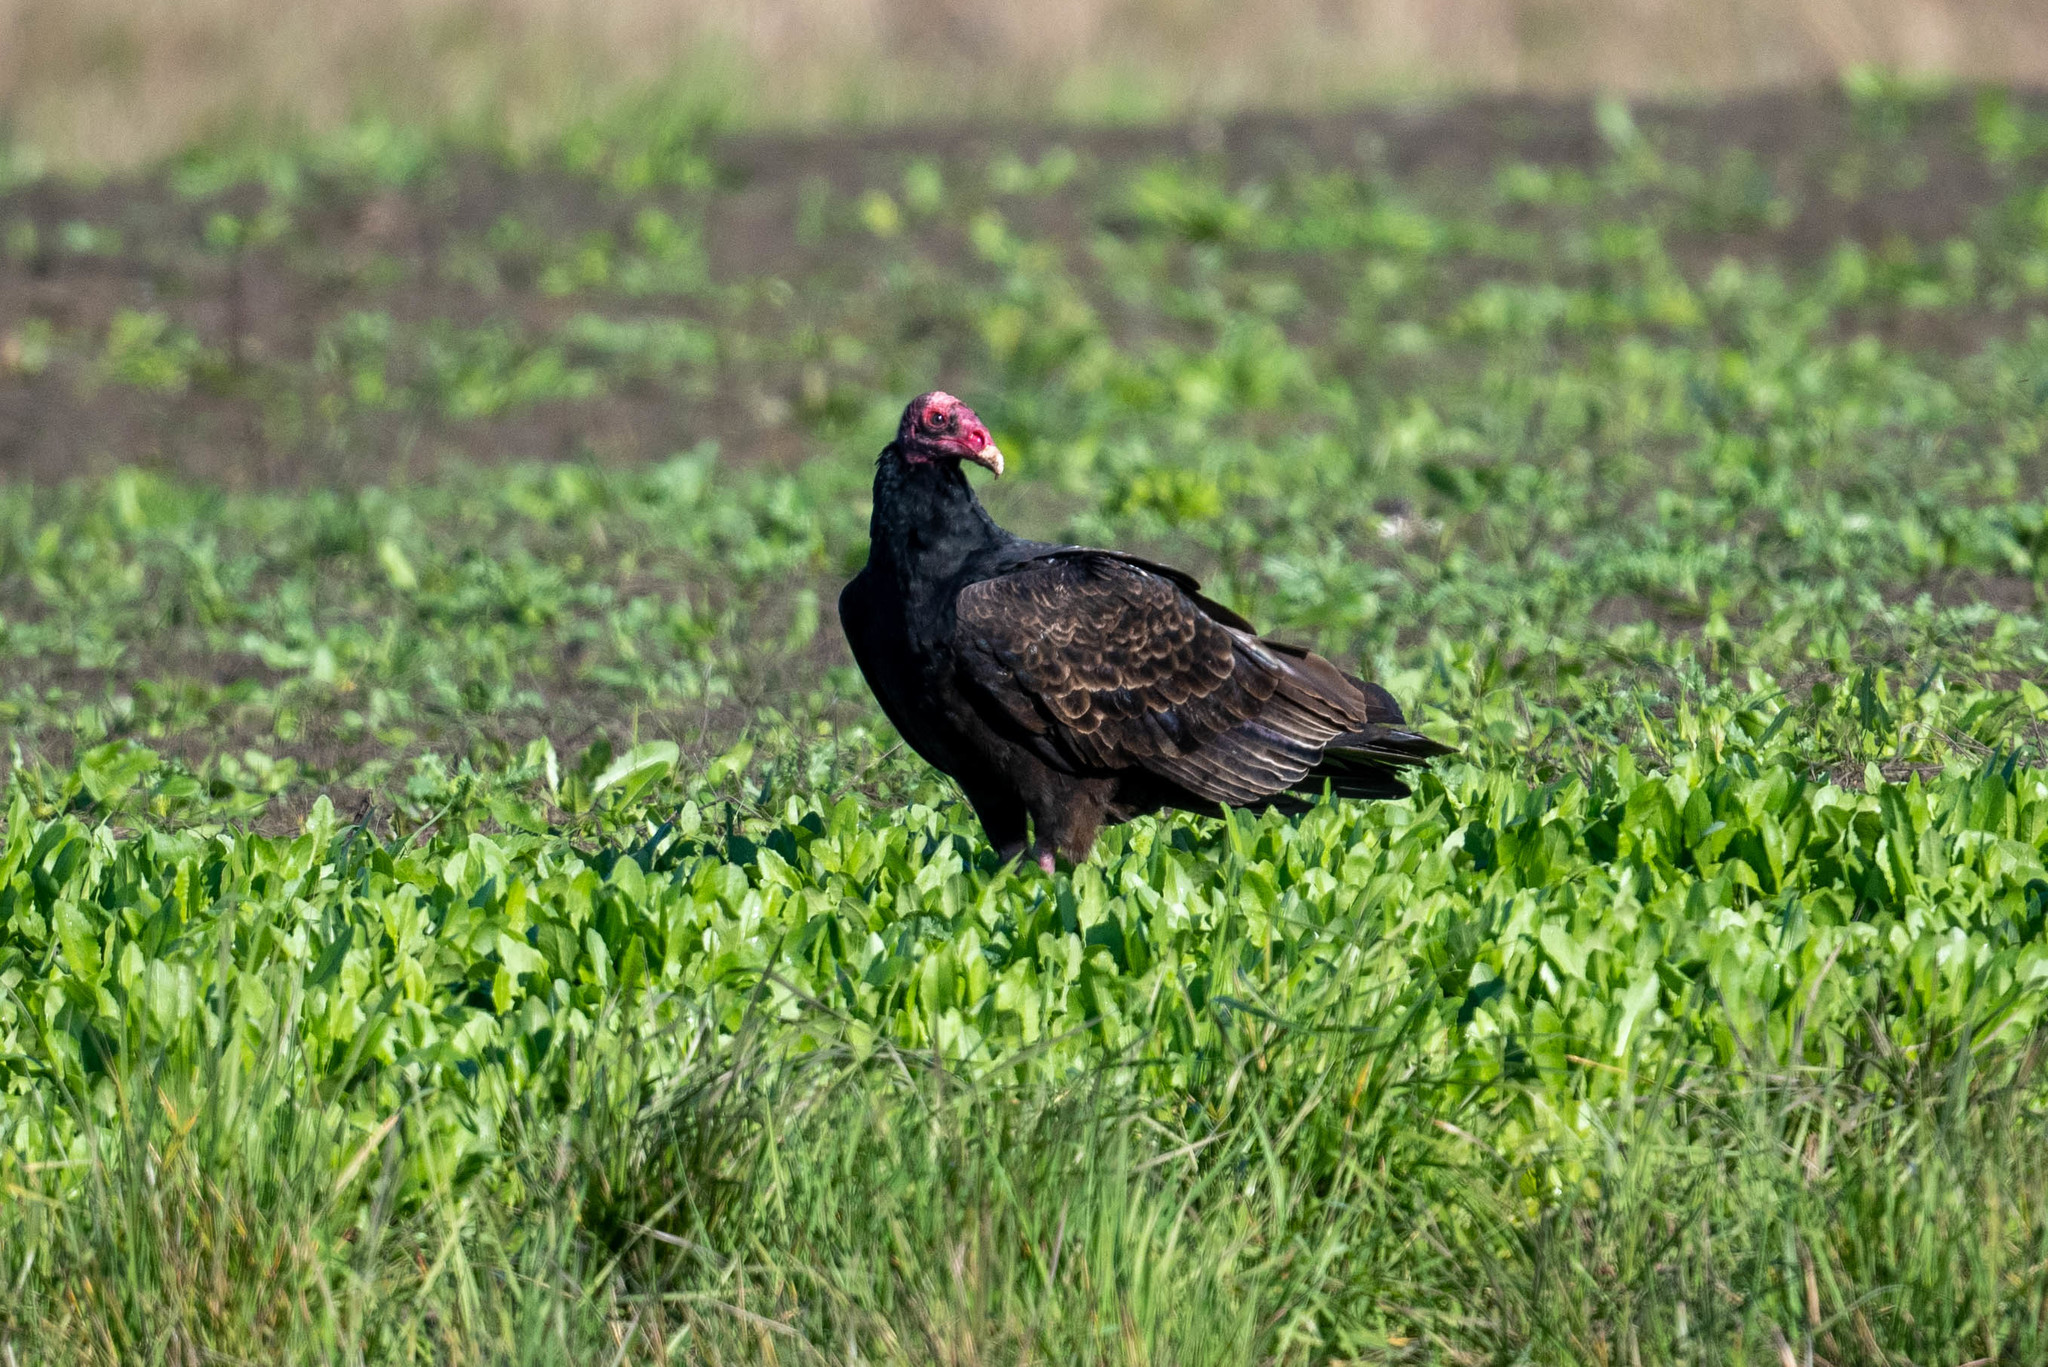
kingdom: Animalia
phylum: Chordata
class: Aves
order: Accipitriformes
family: Cathartidae
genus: Cathartes
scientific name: Cathartes aura
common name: Turkey vulture
